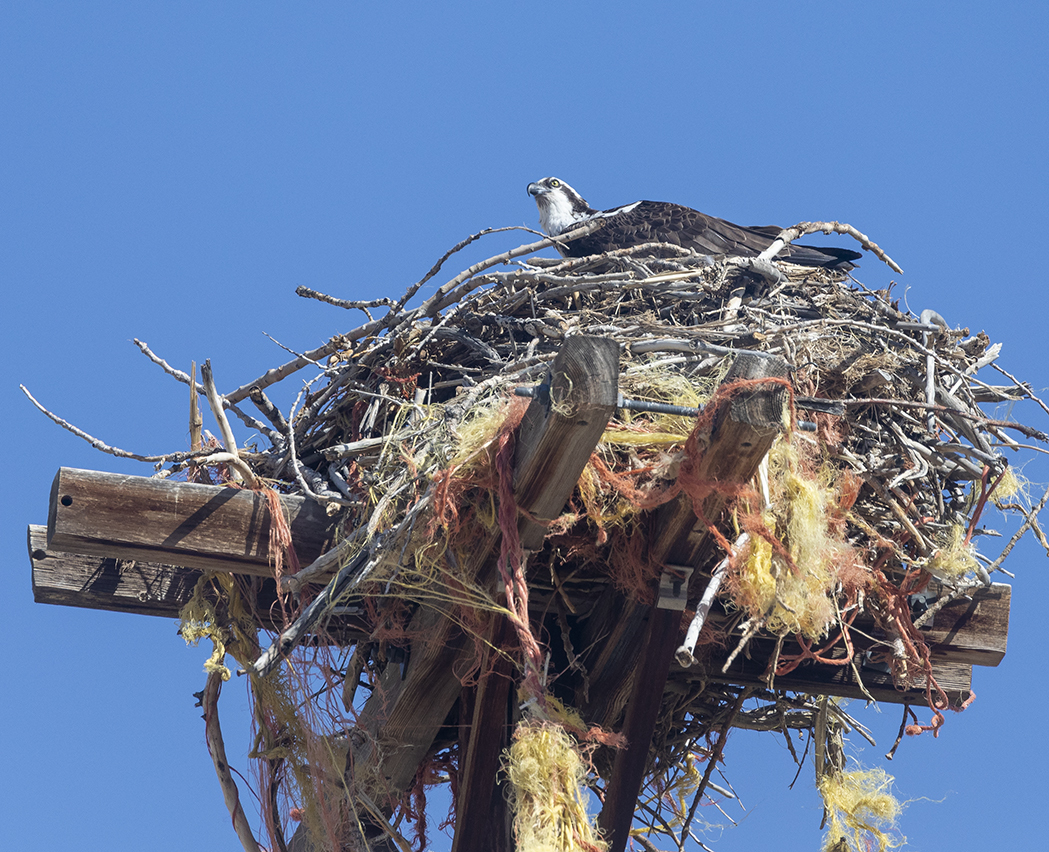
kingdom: Animalia
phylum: Chordata
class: Aves
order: Accipitriformes
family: Pandionidae
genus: Pandion
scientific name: Pandion haliaetus
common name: Osprey
